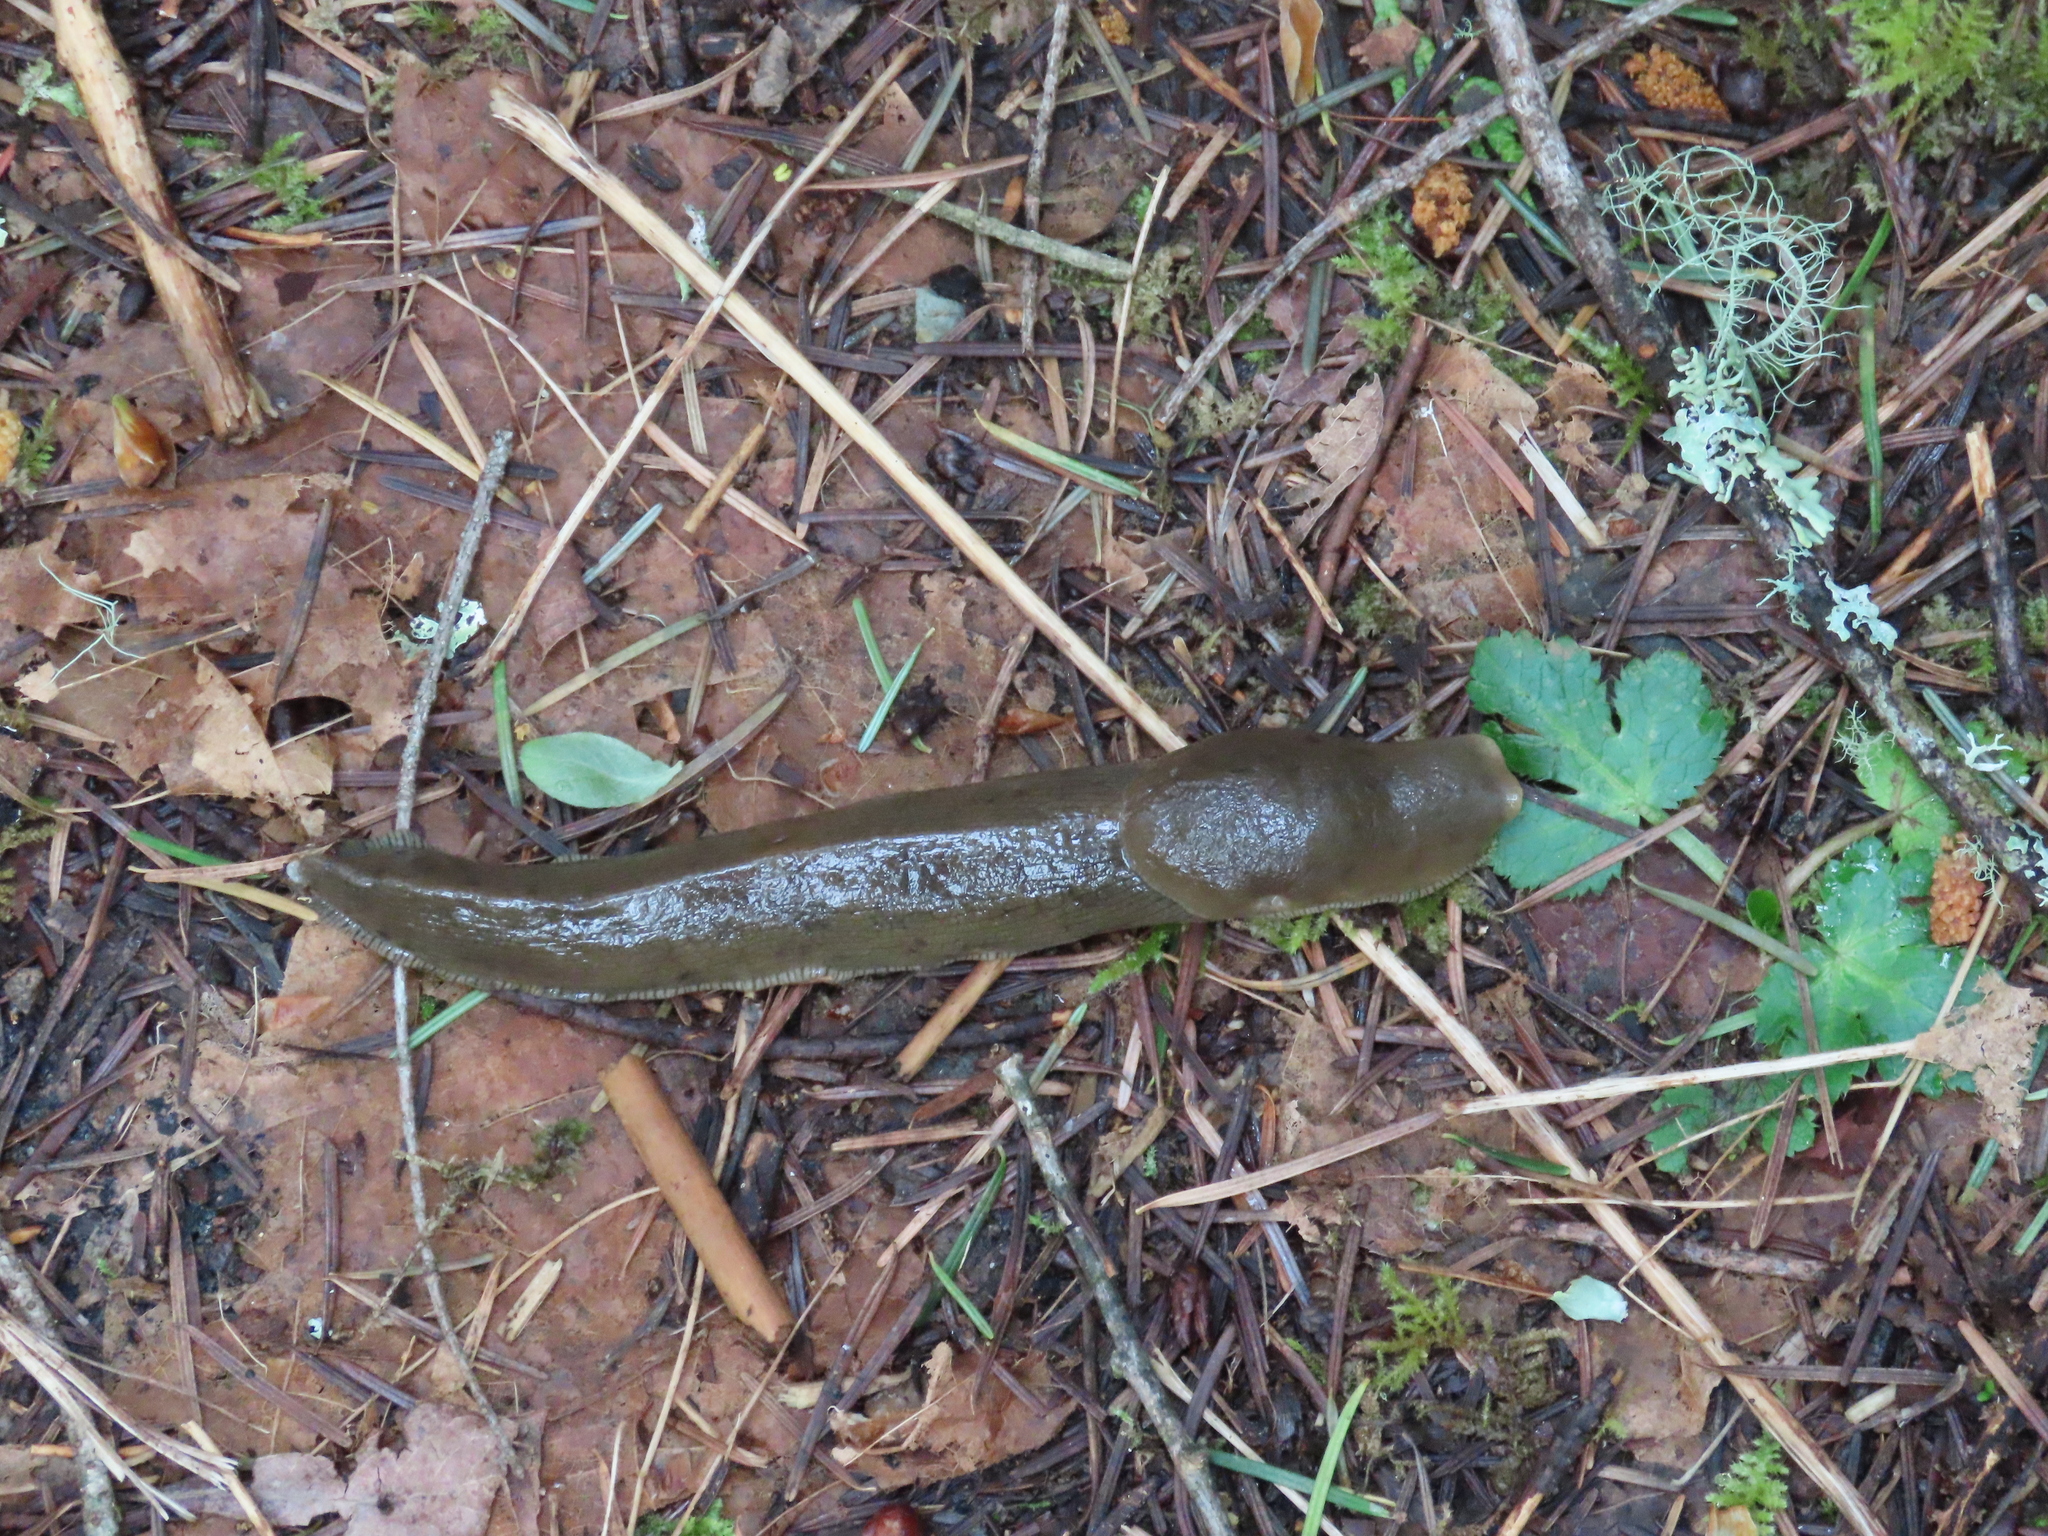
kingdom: Animalia
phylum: Mollusca
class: Gastropoda
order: Stylommatophora
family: Ariolimacidae
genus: Ariolimax
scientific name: Ariolimax columbianus
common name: Pacific banana slug
